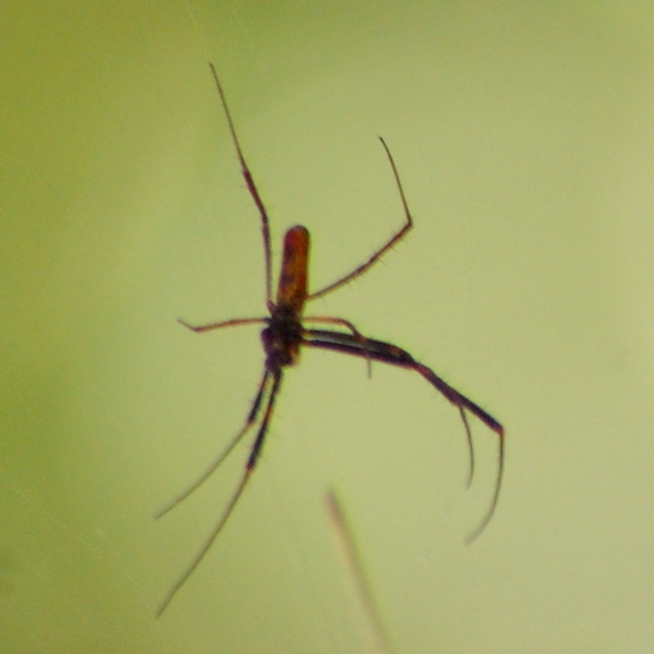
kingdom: Animalia
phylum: Arthropoda
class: Arachnida
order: Araneae
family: Araneidae
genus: Trichonephila
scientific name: Trichonephila clavipes
